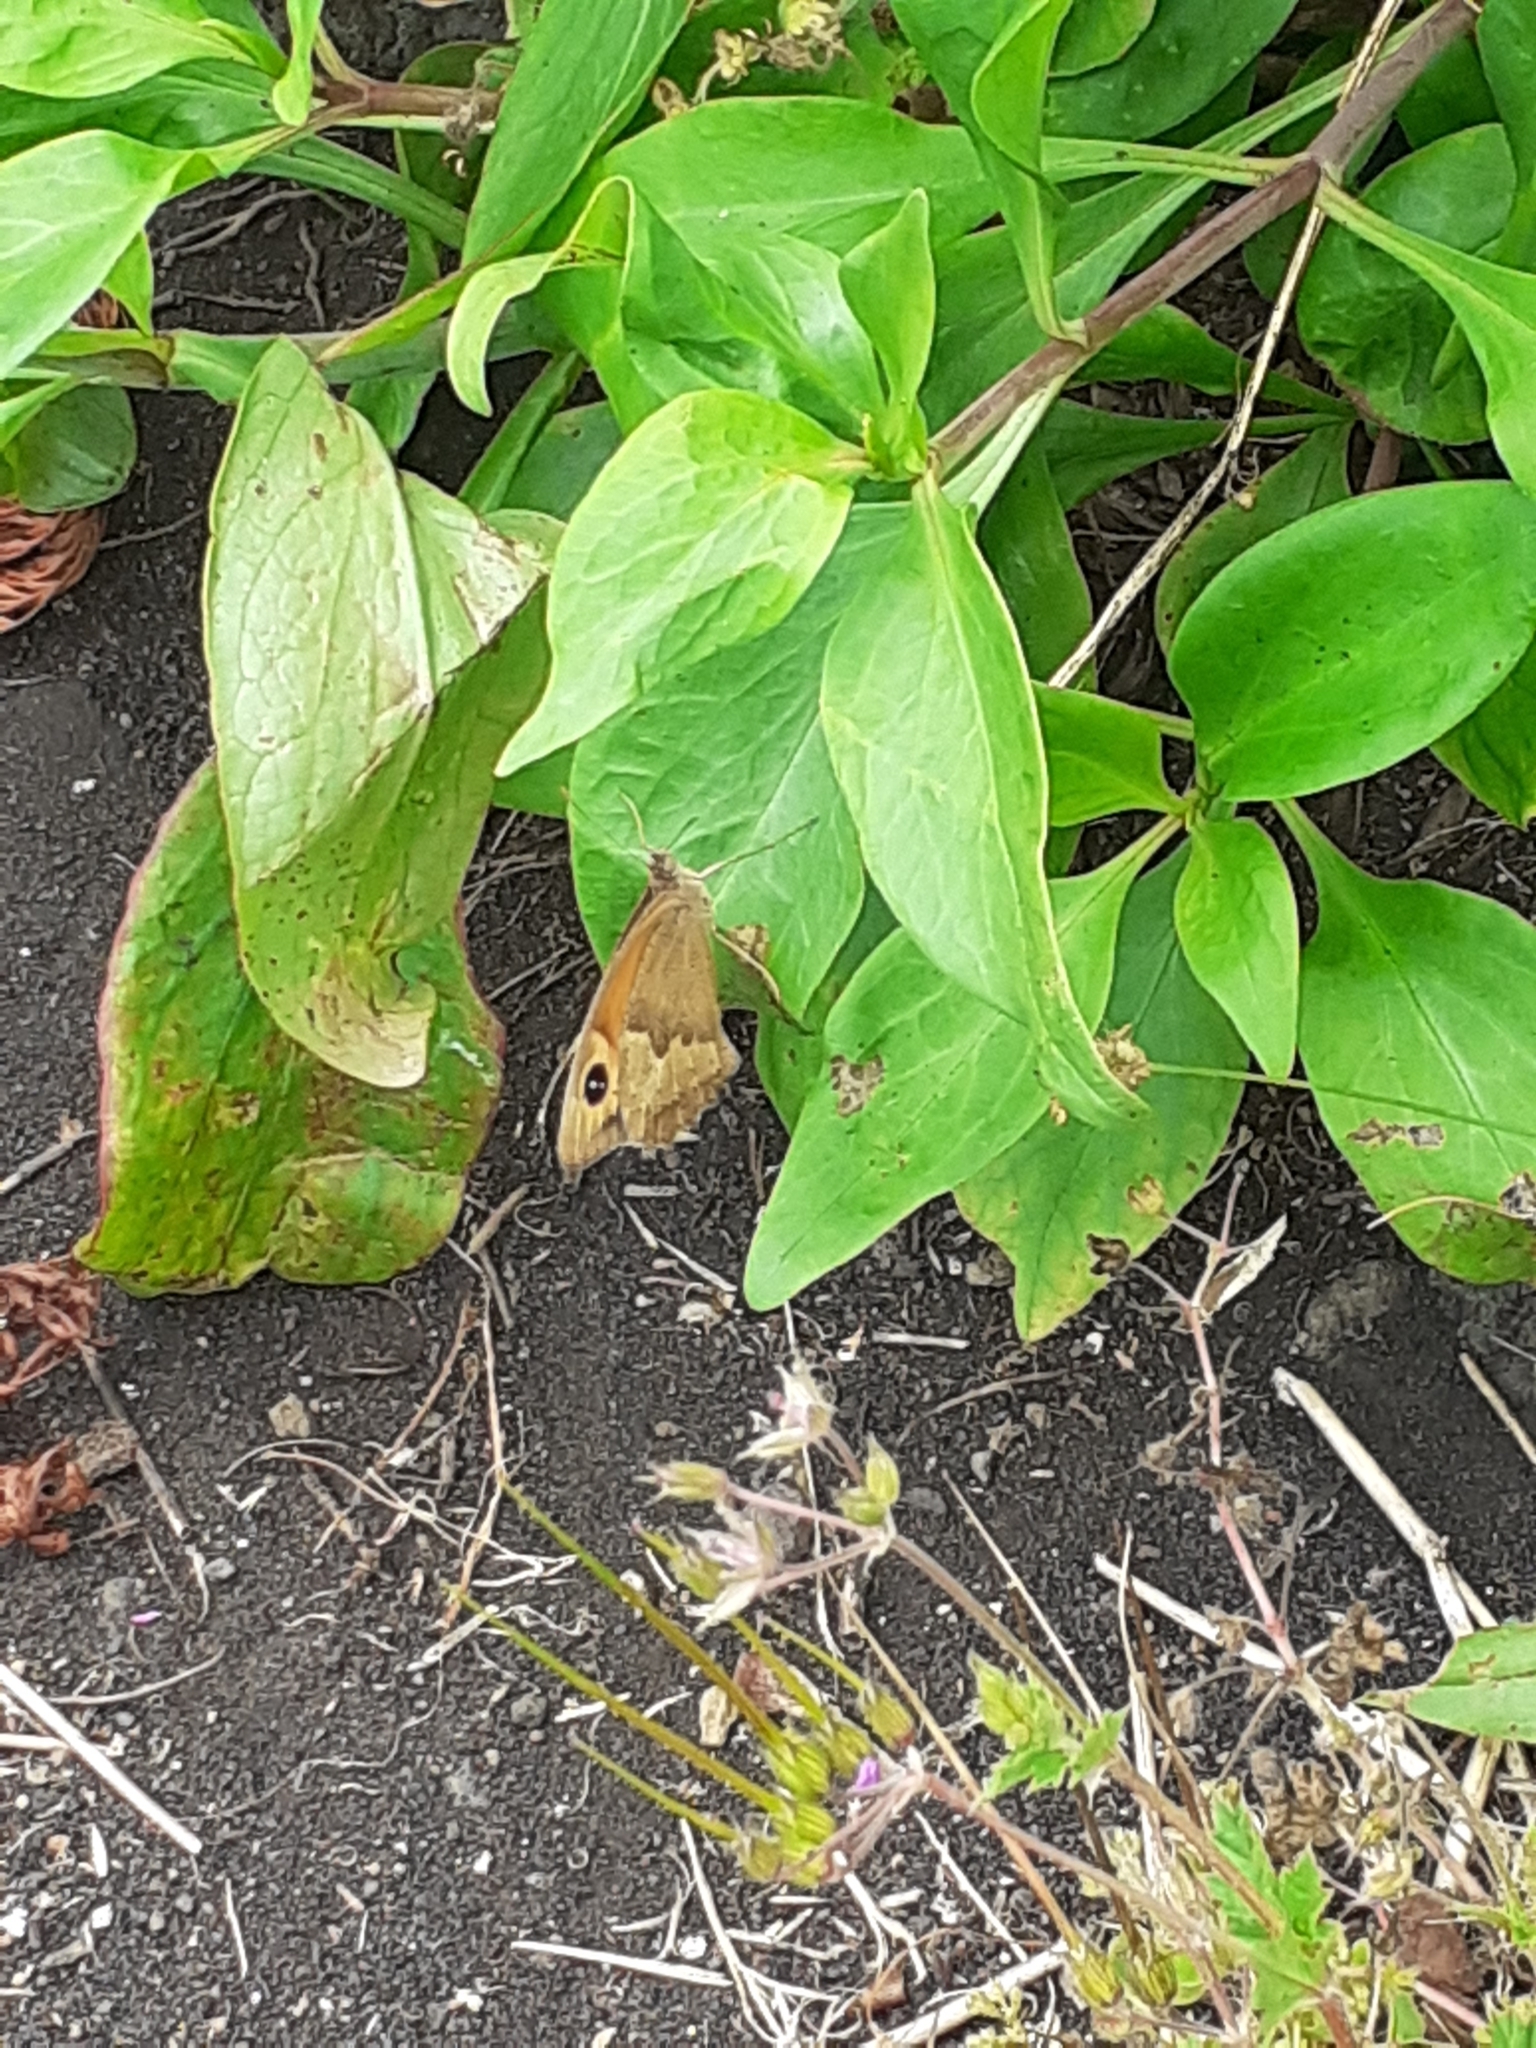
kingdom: Animalia
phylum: Arthropoda
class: Insecta
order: Lepidoptera
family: Nymphalidae
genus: Maniola
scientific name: Maniola jurtina
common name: Meadow brown
